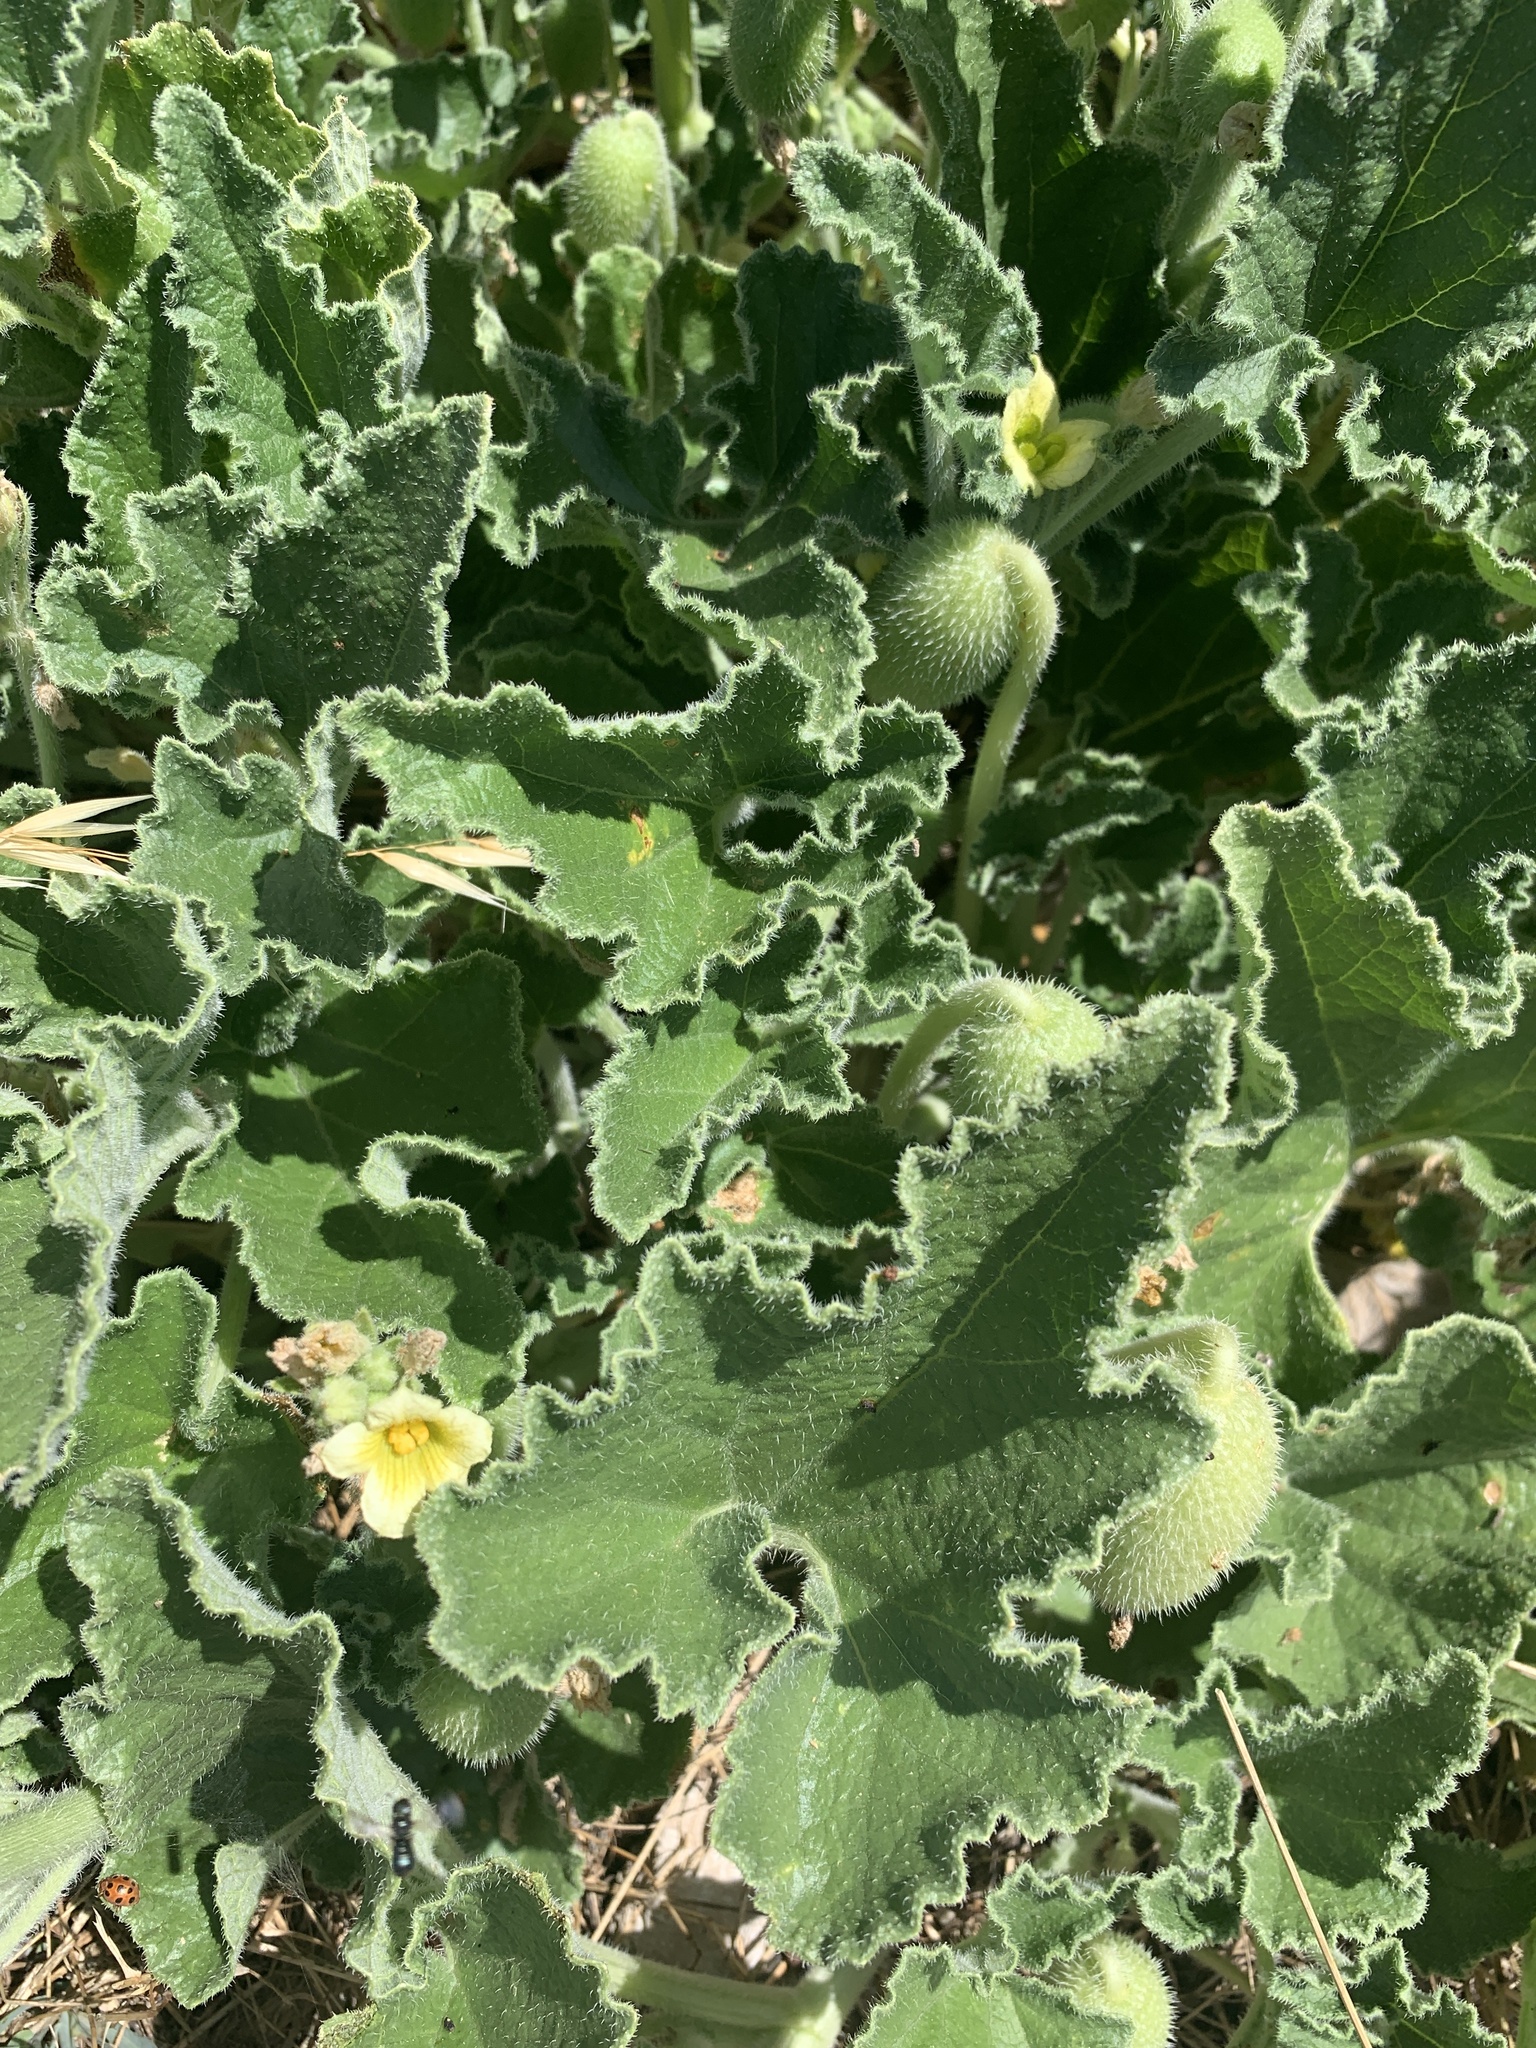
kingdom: Plantae
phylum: Tracheophyta
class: Magnoliopsida
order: Cucurbitales
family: Cucurbitaceae
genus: Ecballium
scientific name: Ecballium elaterium
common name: Squirting cucumber
